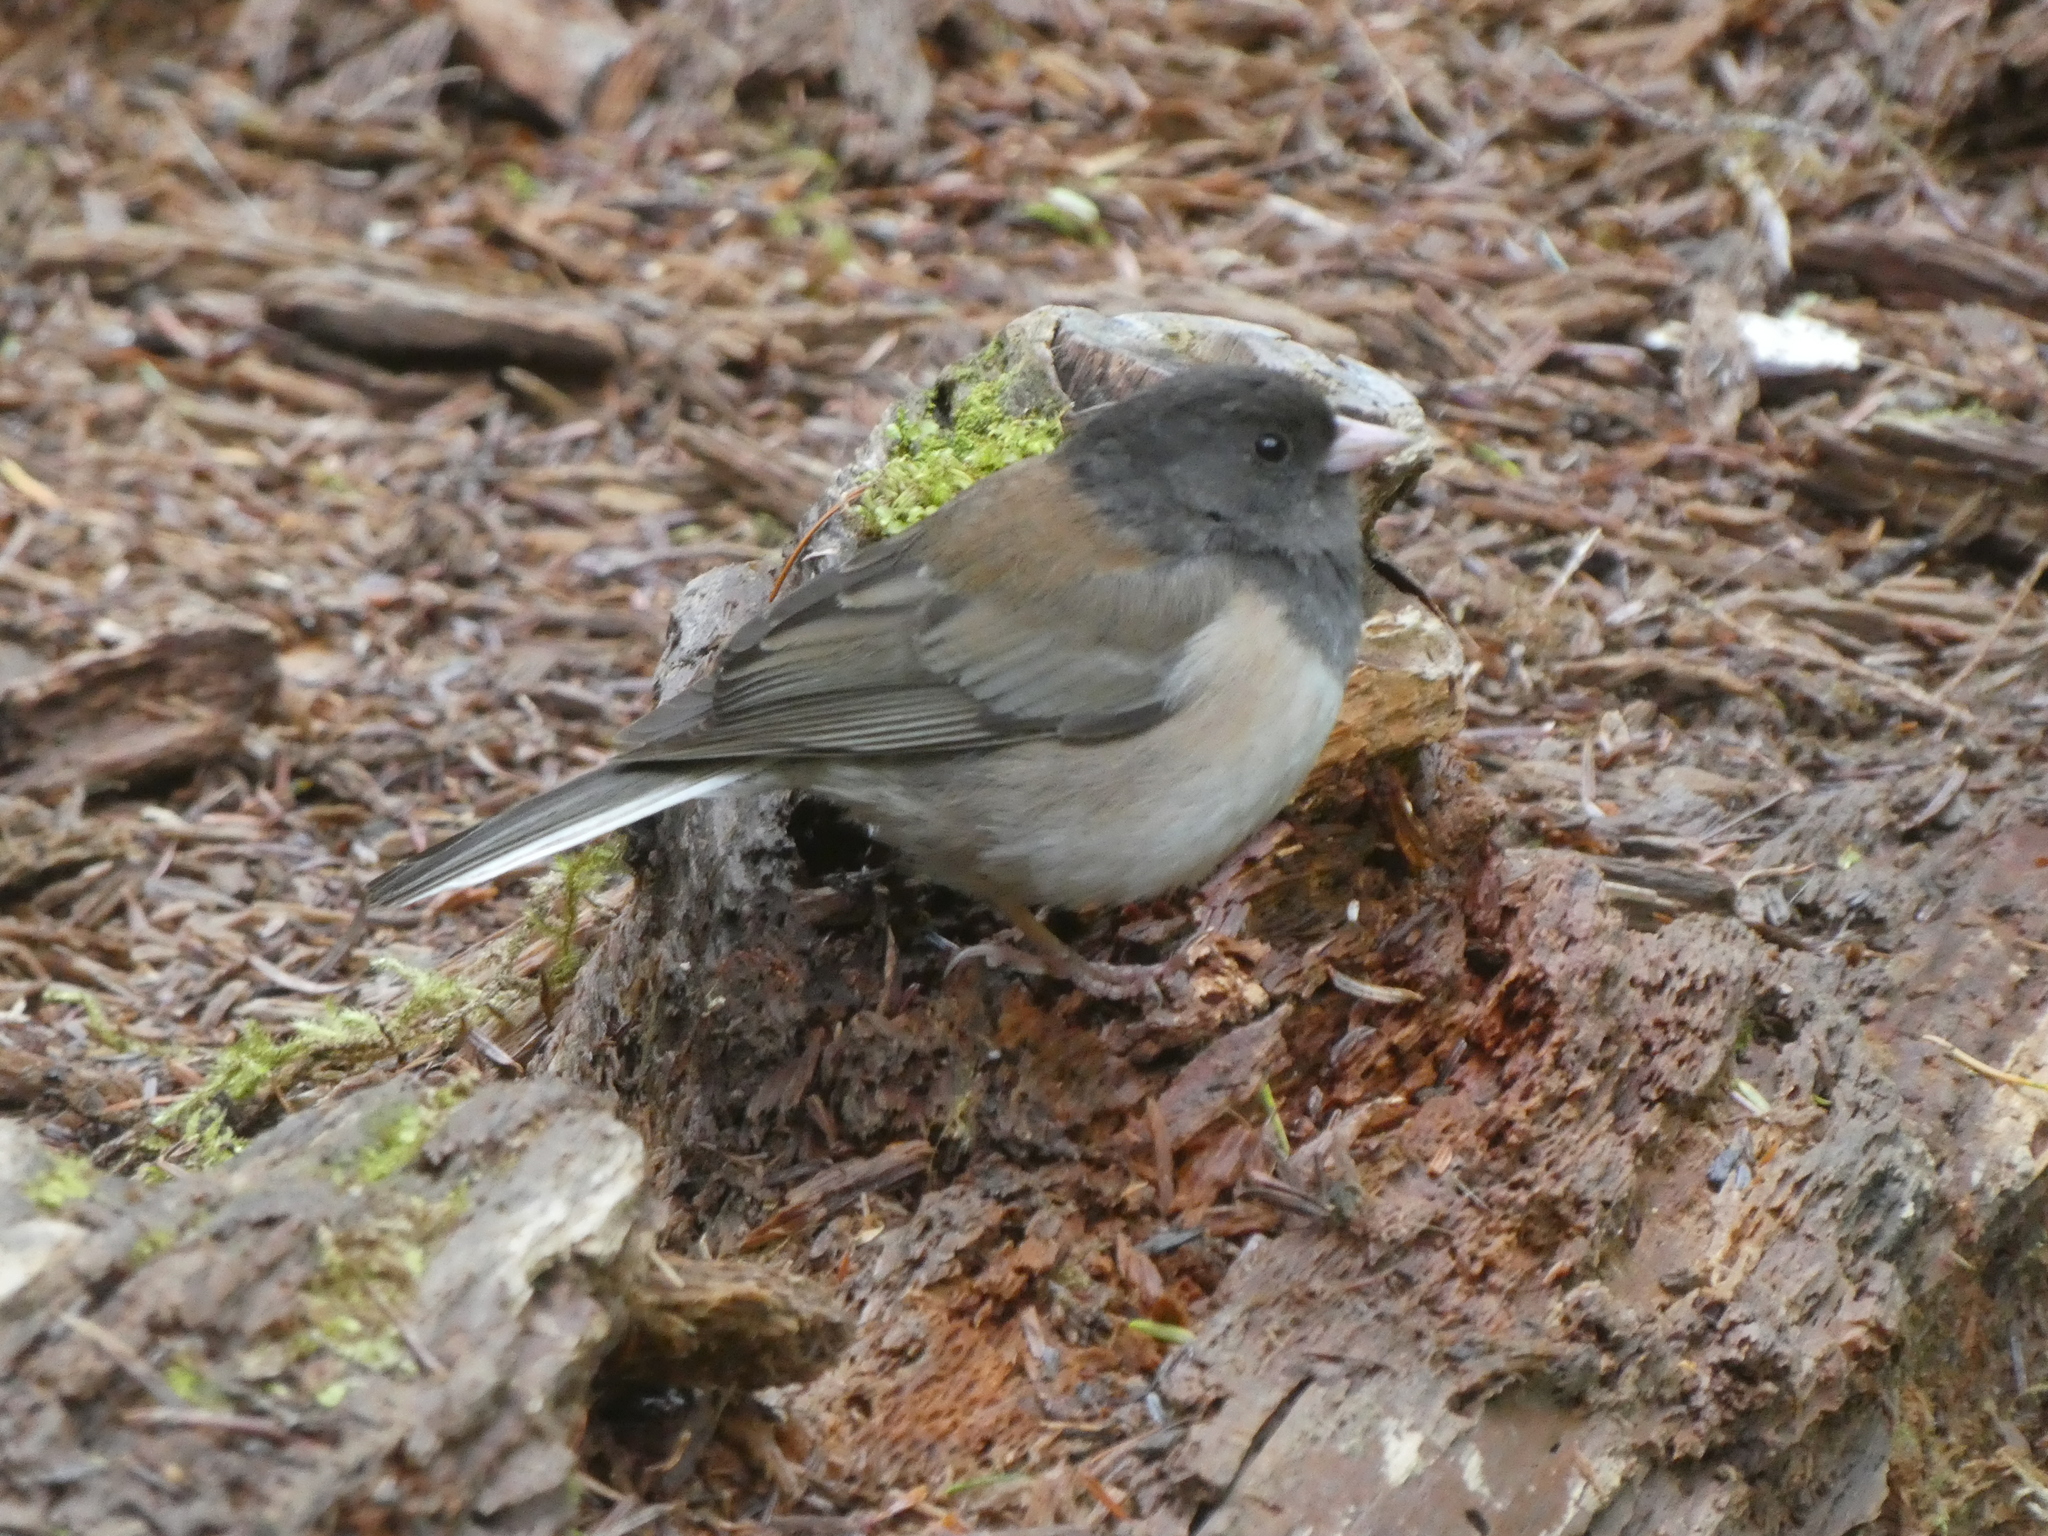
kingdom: Animalia
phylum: Chordata
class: Aves
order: Passeriformes
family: Passerellidae
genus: Junco
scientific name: Junco hyemalis
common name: Dark-eyed junco
